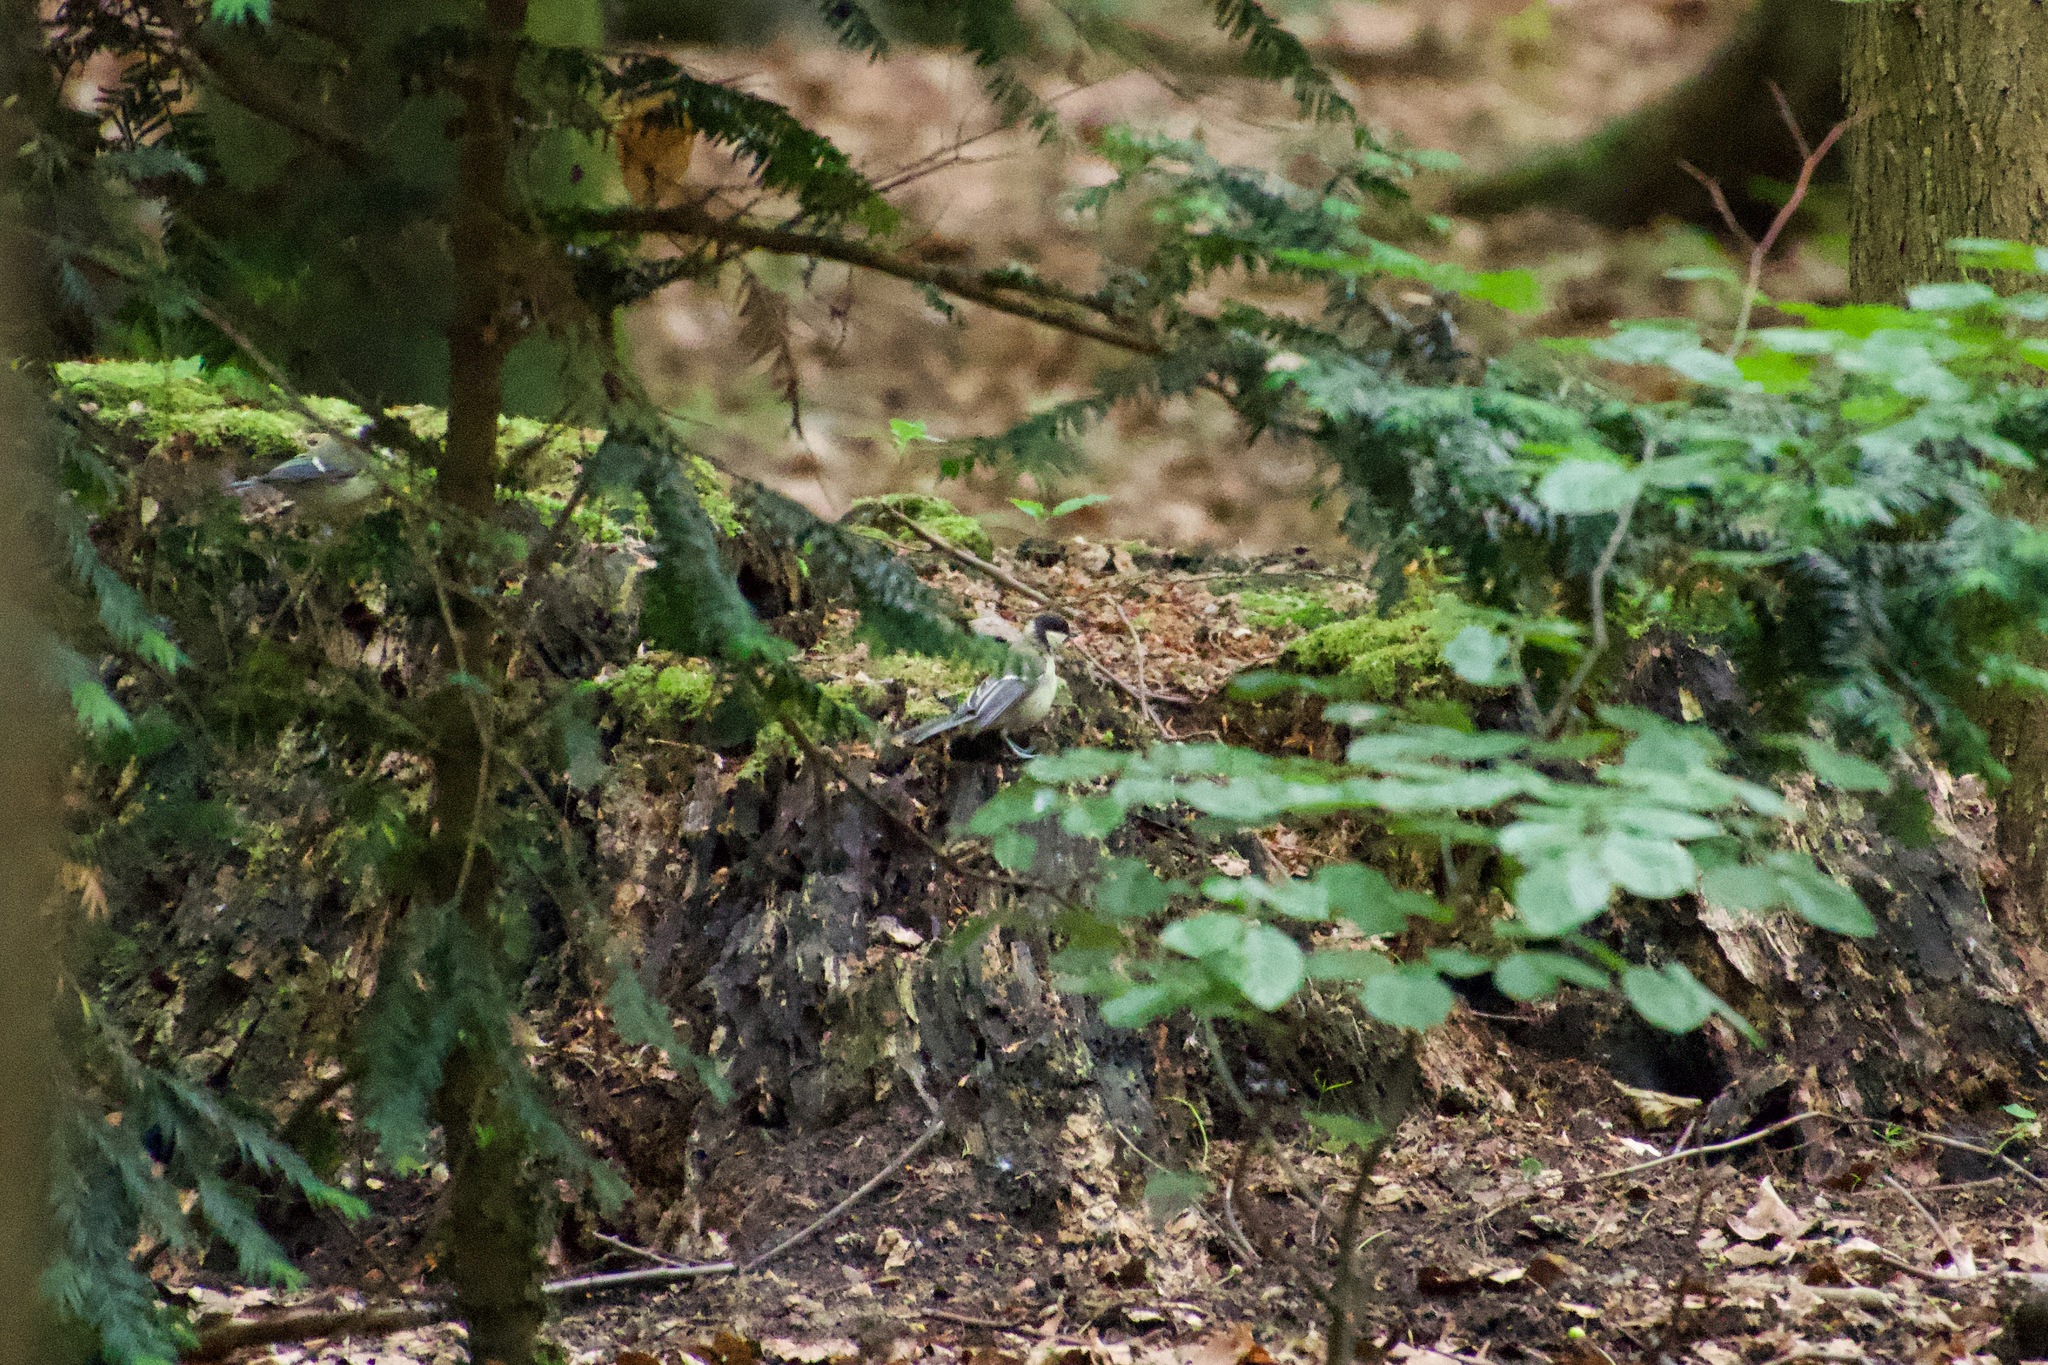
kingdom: Animalia
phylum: Chordata
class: Aves
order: Passeriformes
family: Paridae
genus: Parus
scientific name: Parus major
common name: Great tit
